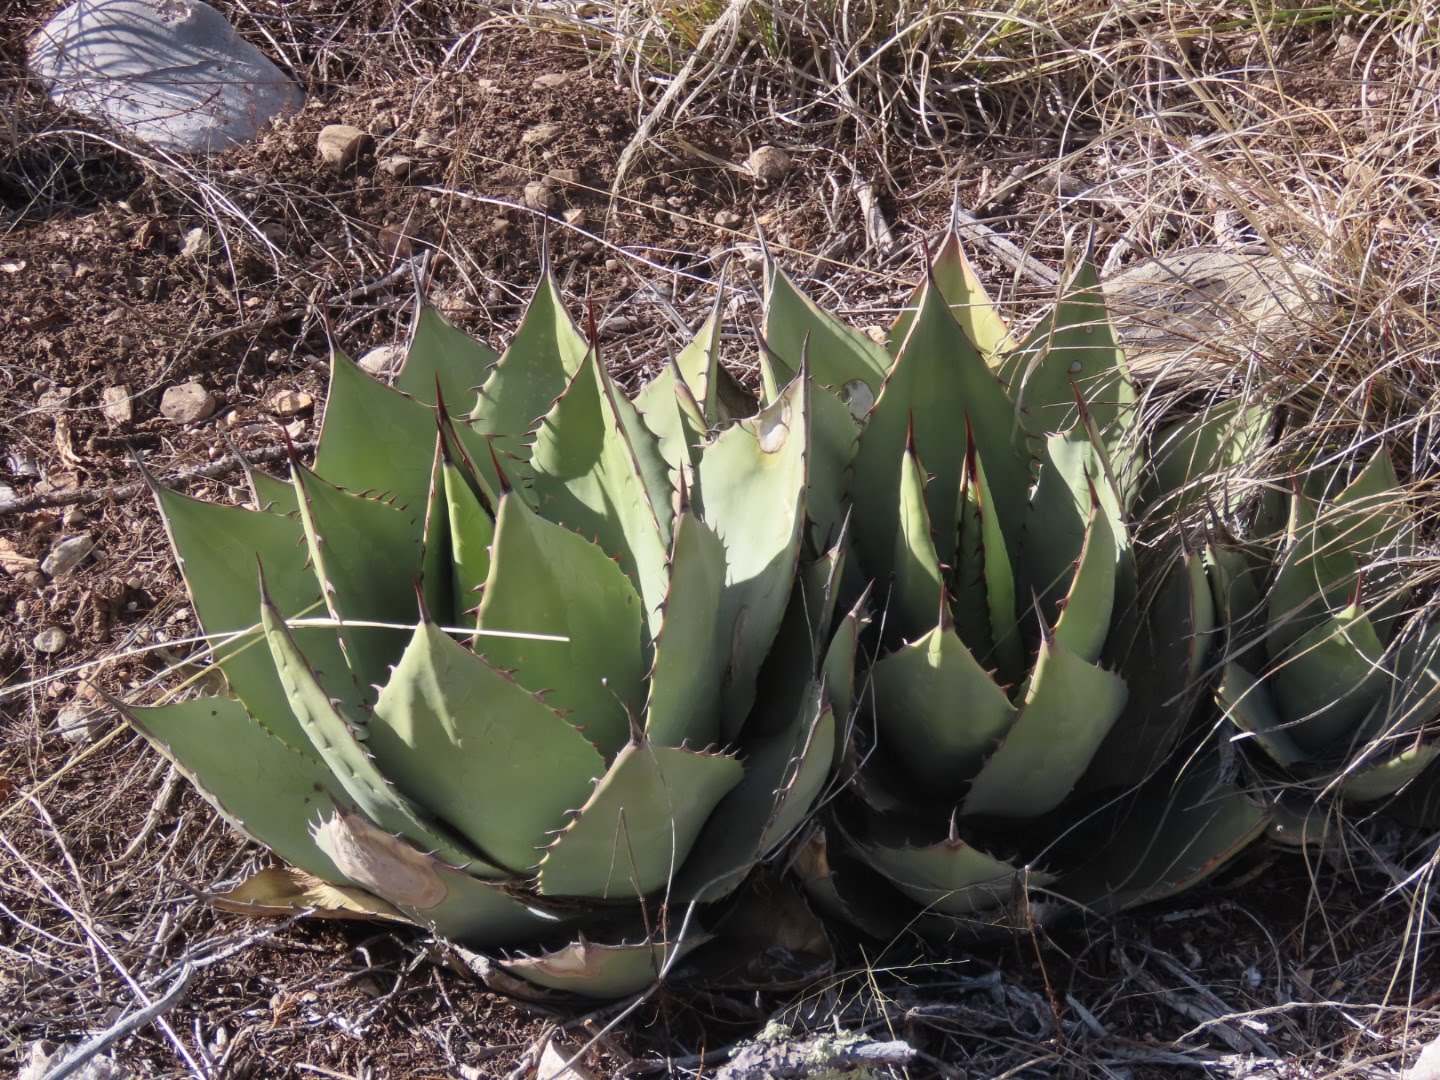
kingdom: Plantae
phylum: Tracheophyta
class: Liliopsida
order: Asparagales
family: Asparagaceae
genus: Agave
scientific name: Agave parryi
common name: Parry's agave
